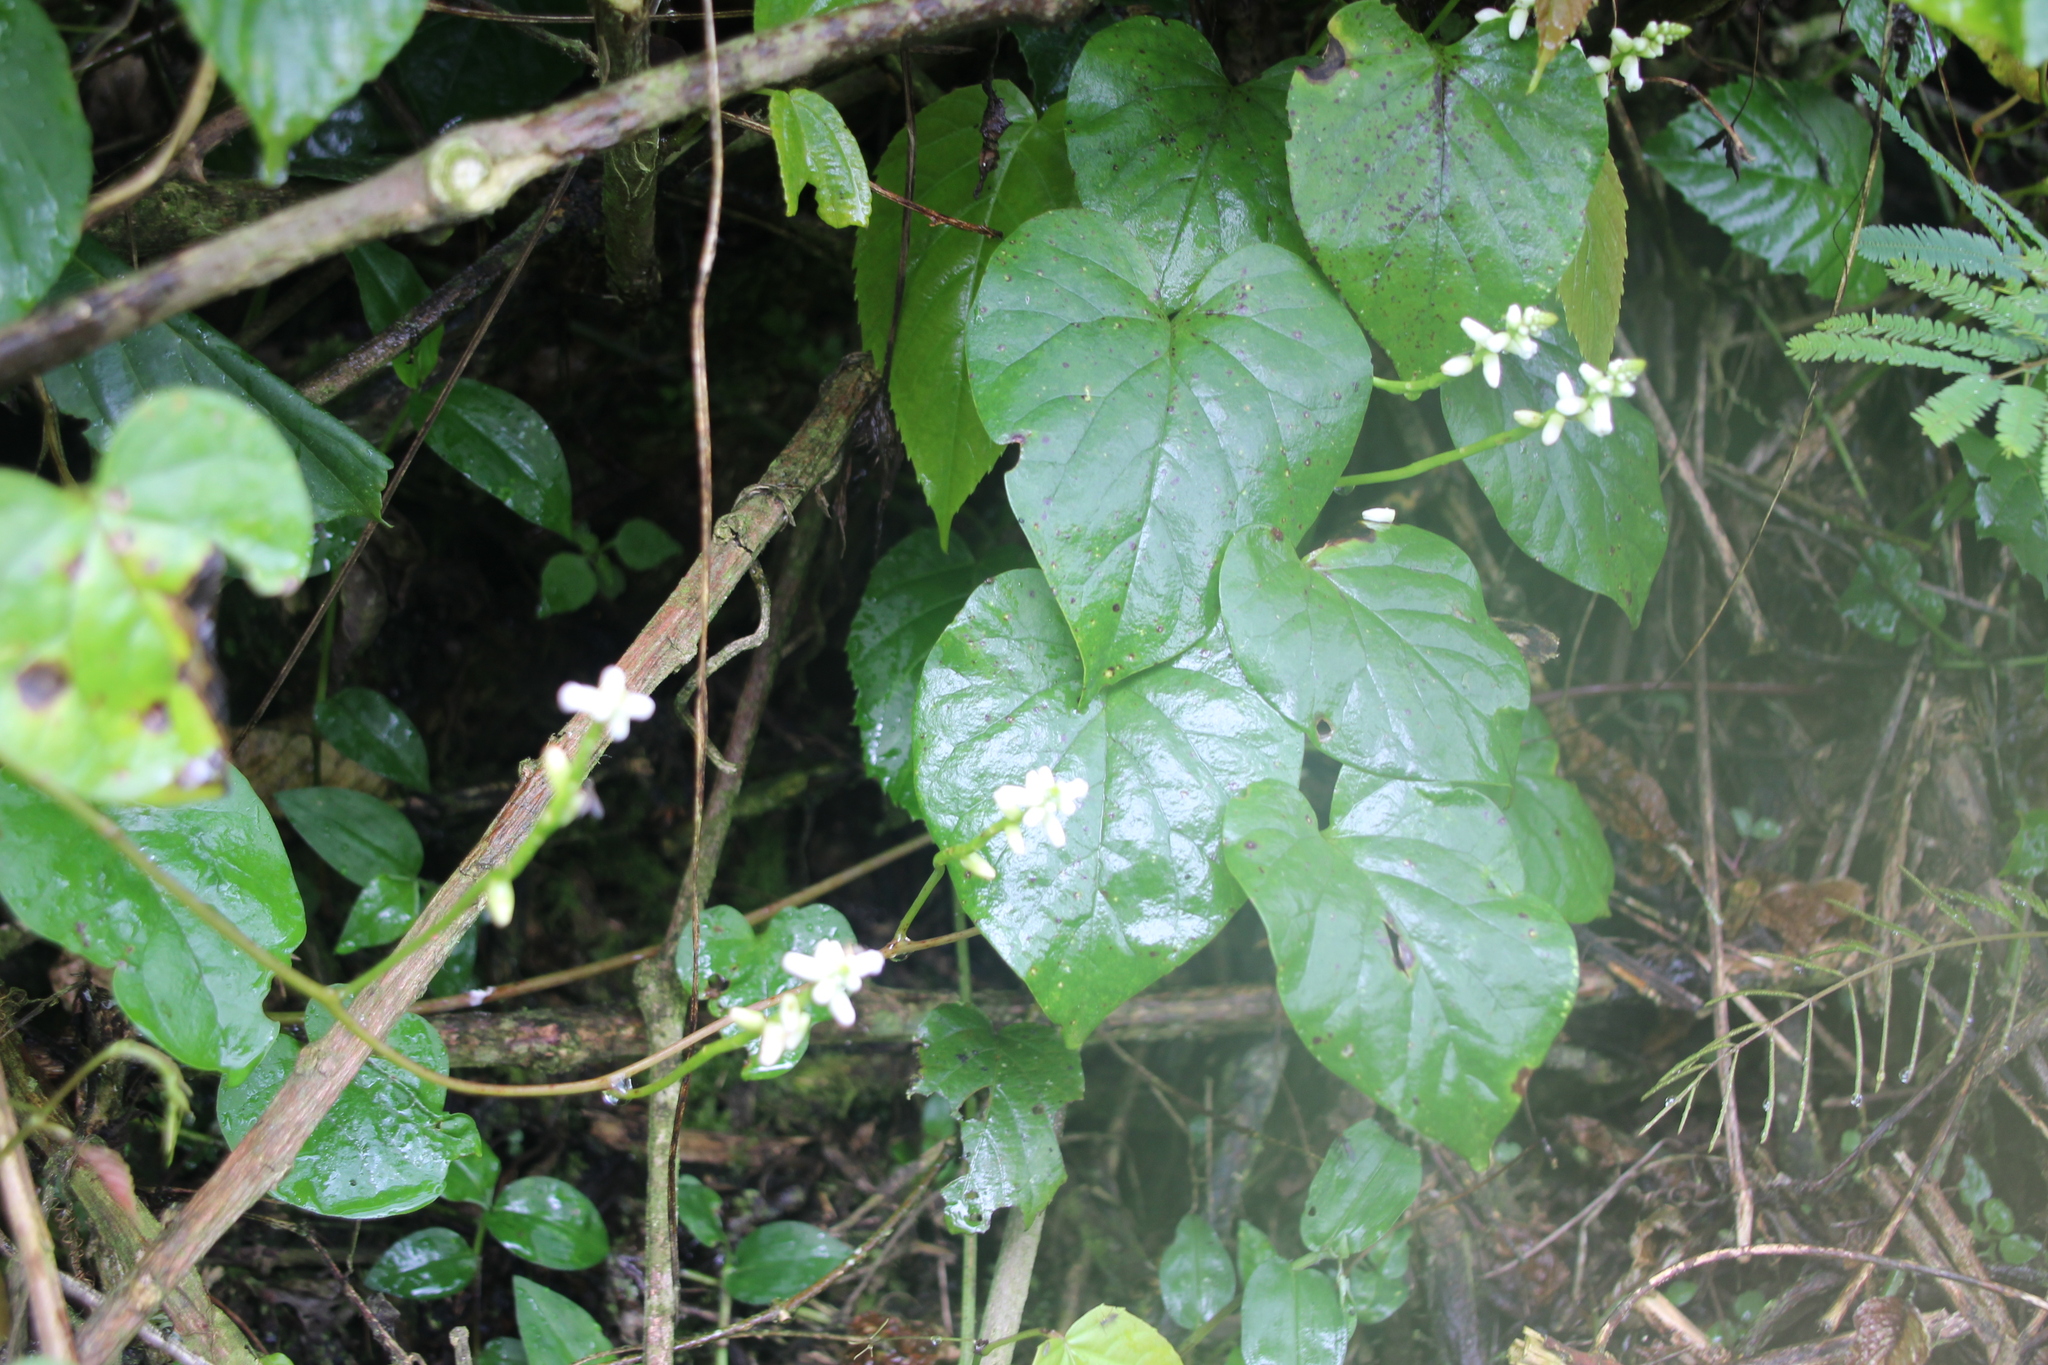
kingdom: Plantae
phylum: Tracheophyta
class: Magnoliopsida
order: Caryophyllales
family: Basellaceae
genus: Basella
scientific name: Basella alba
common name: Indian spinach
